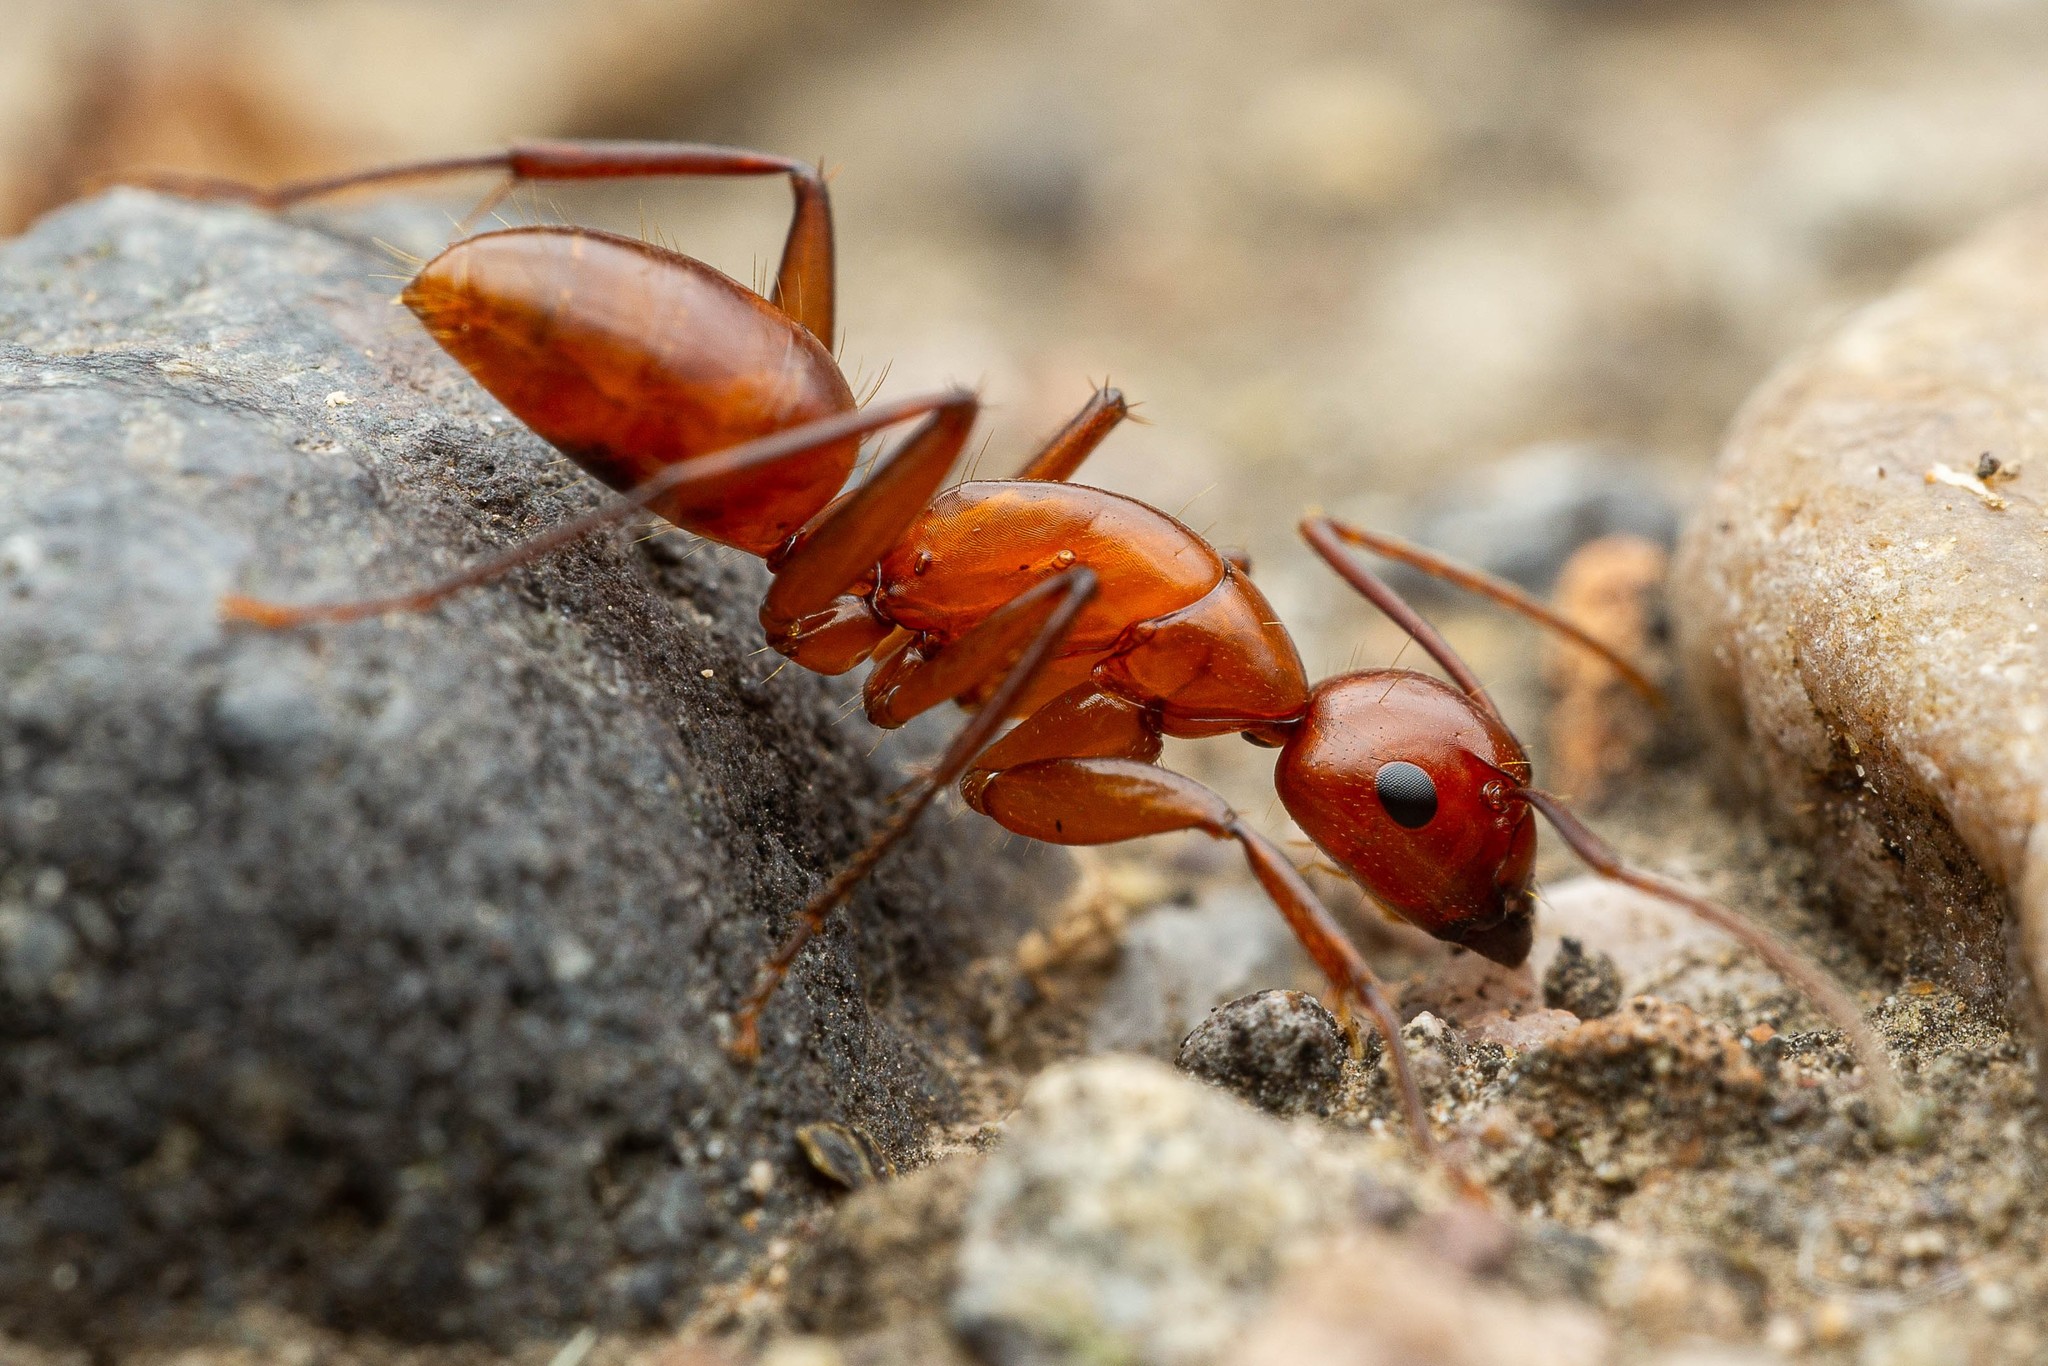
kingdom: Animalia
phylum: Arthropoda
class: Insecta
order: Hymenoptera
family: Formicidae
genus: Camponotus
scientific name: Camponotus schaefferi
